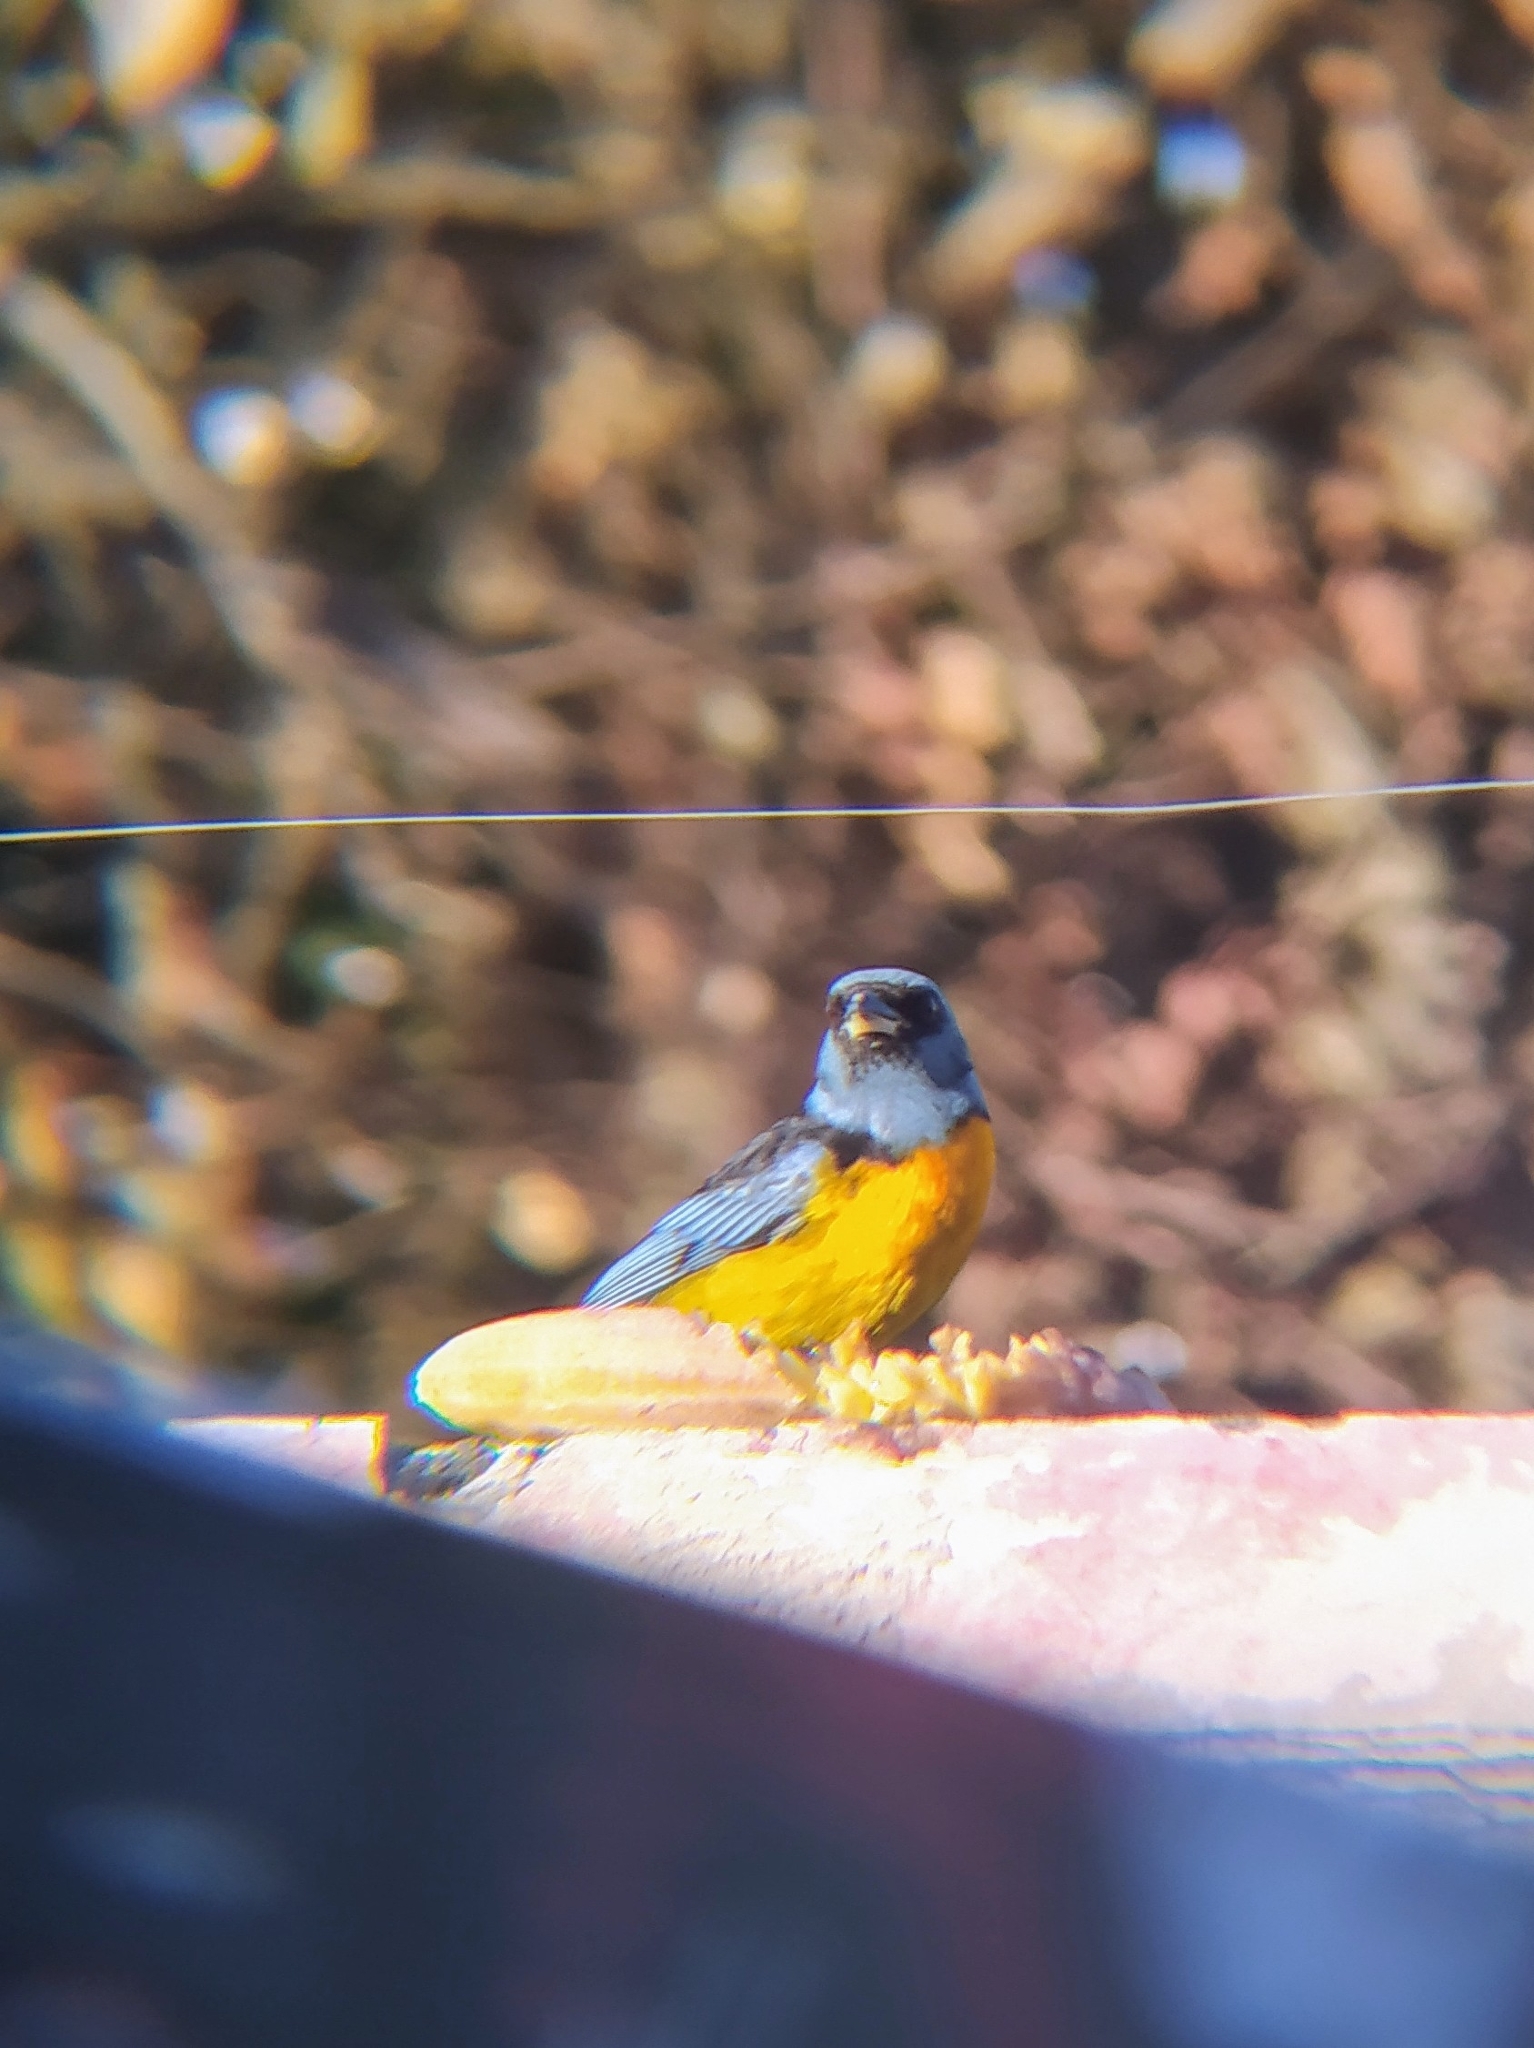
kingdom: Animalia
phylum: Chordata
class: Aves
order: Passeriformes
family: Thraupidae
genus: Rauenia
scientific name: Rauenia bonariensis
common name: Blue-and-yellow tanager
